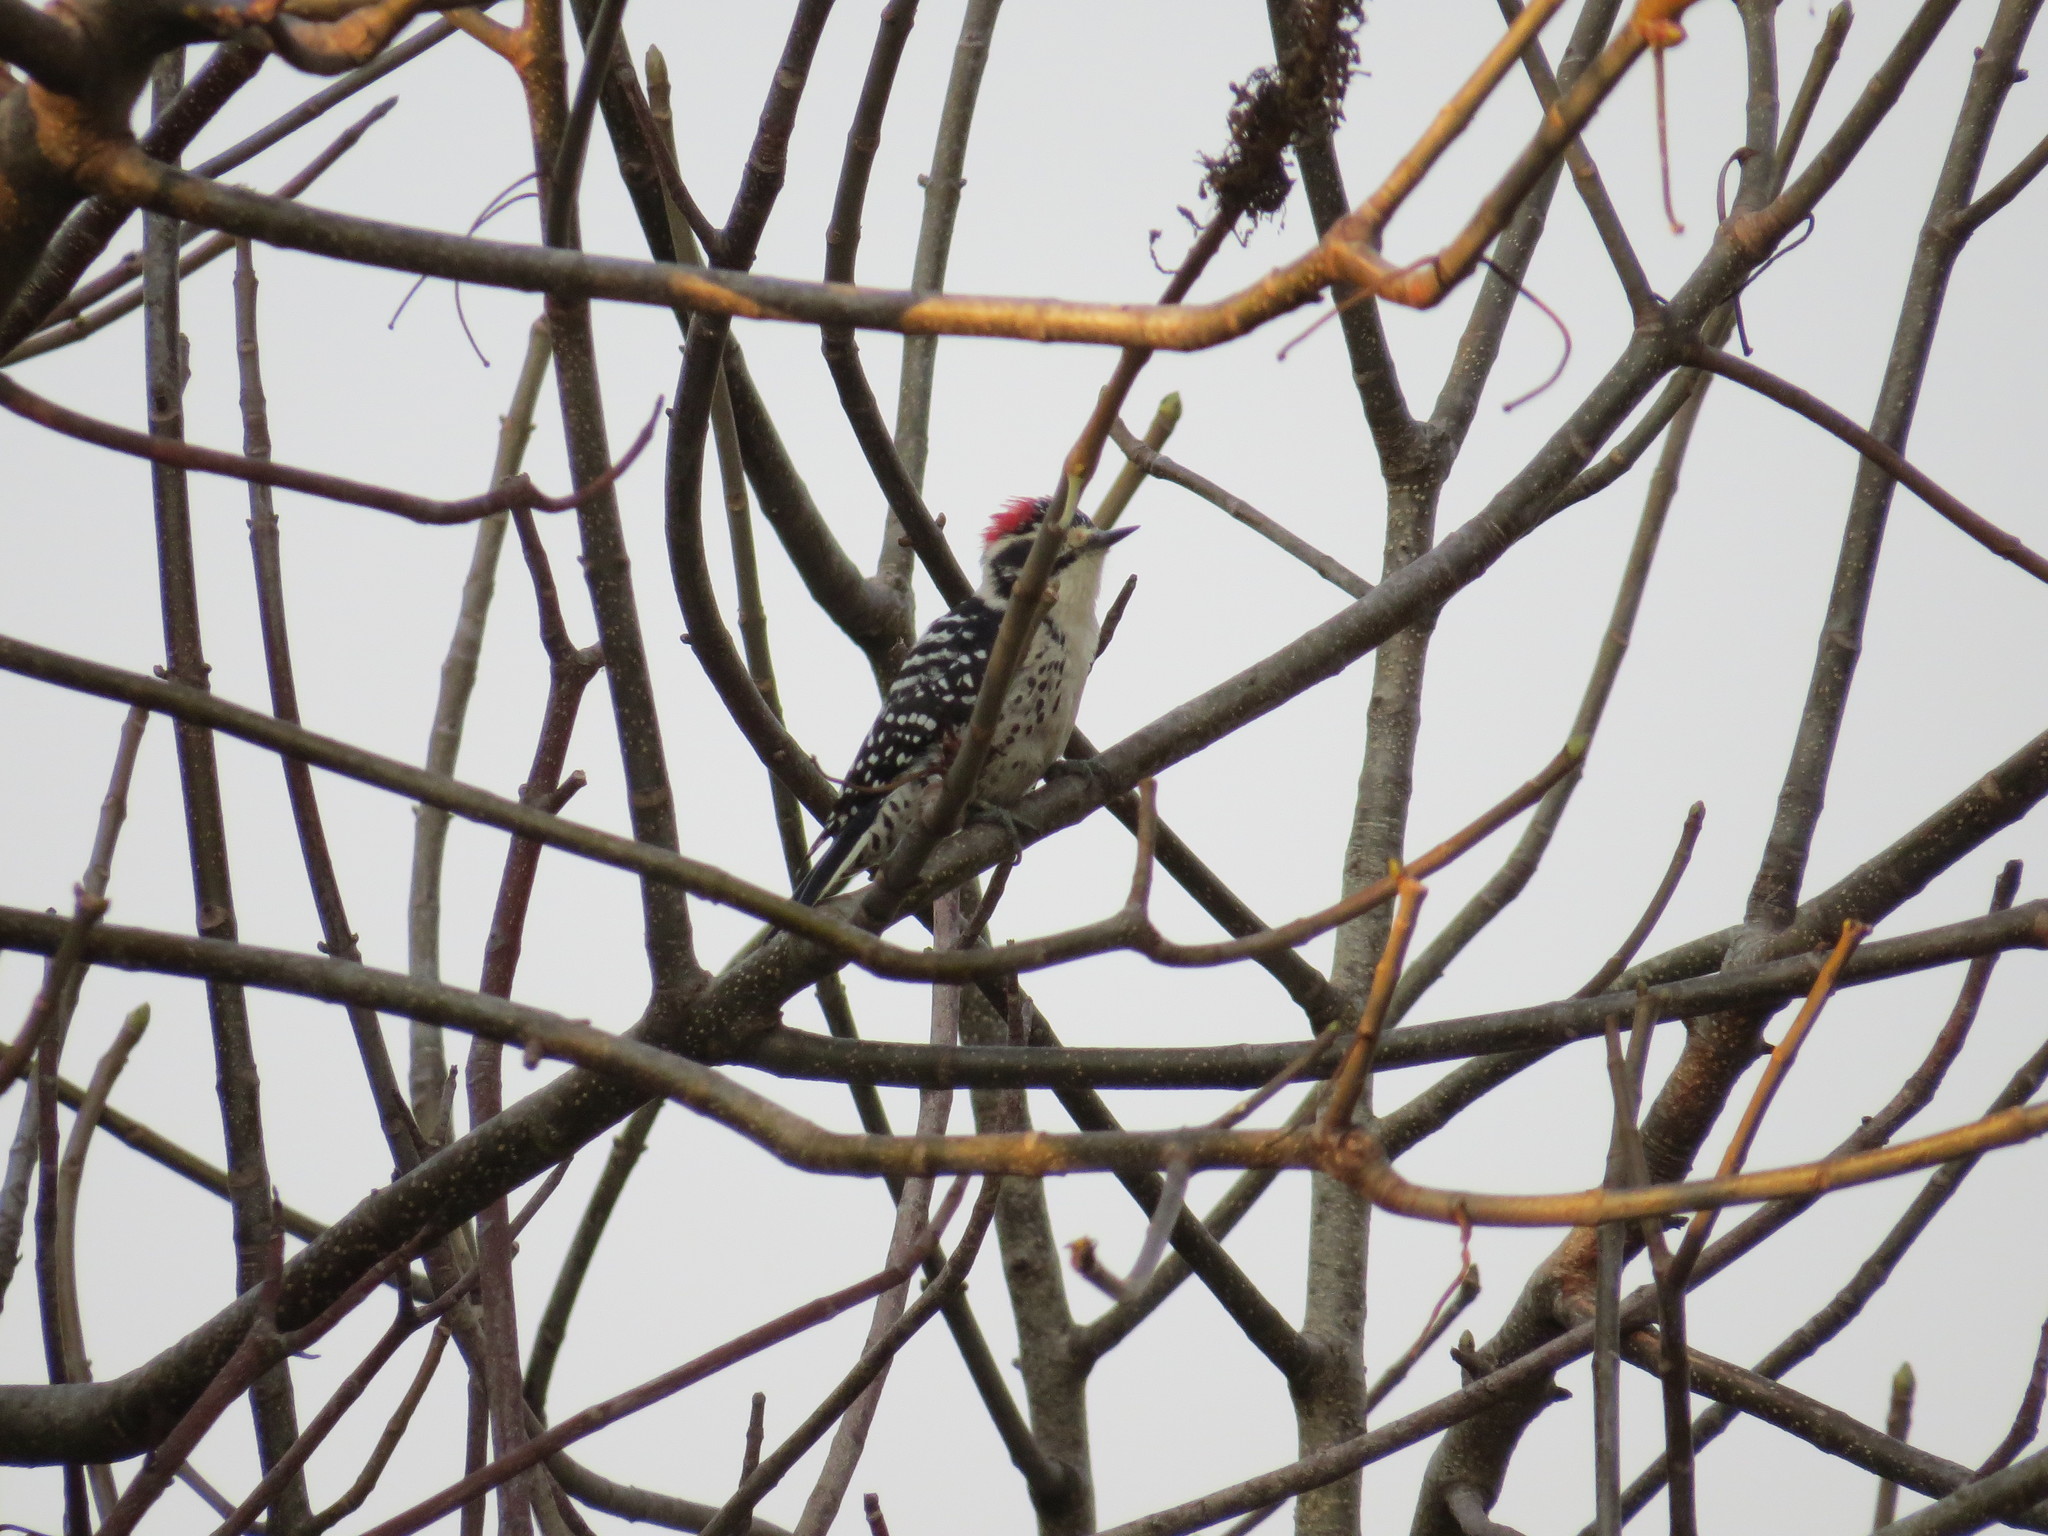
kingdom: Animalia
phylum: Chordata
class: Aves
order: Piciformes
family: Picidae
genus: Dryobates
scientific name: Dryobates nuttallii
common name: Nuttall's woodpecker
